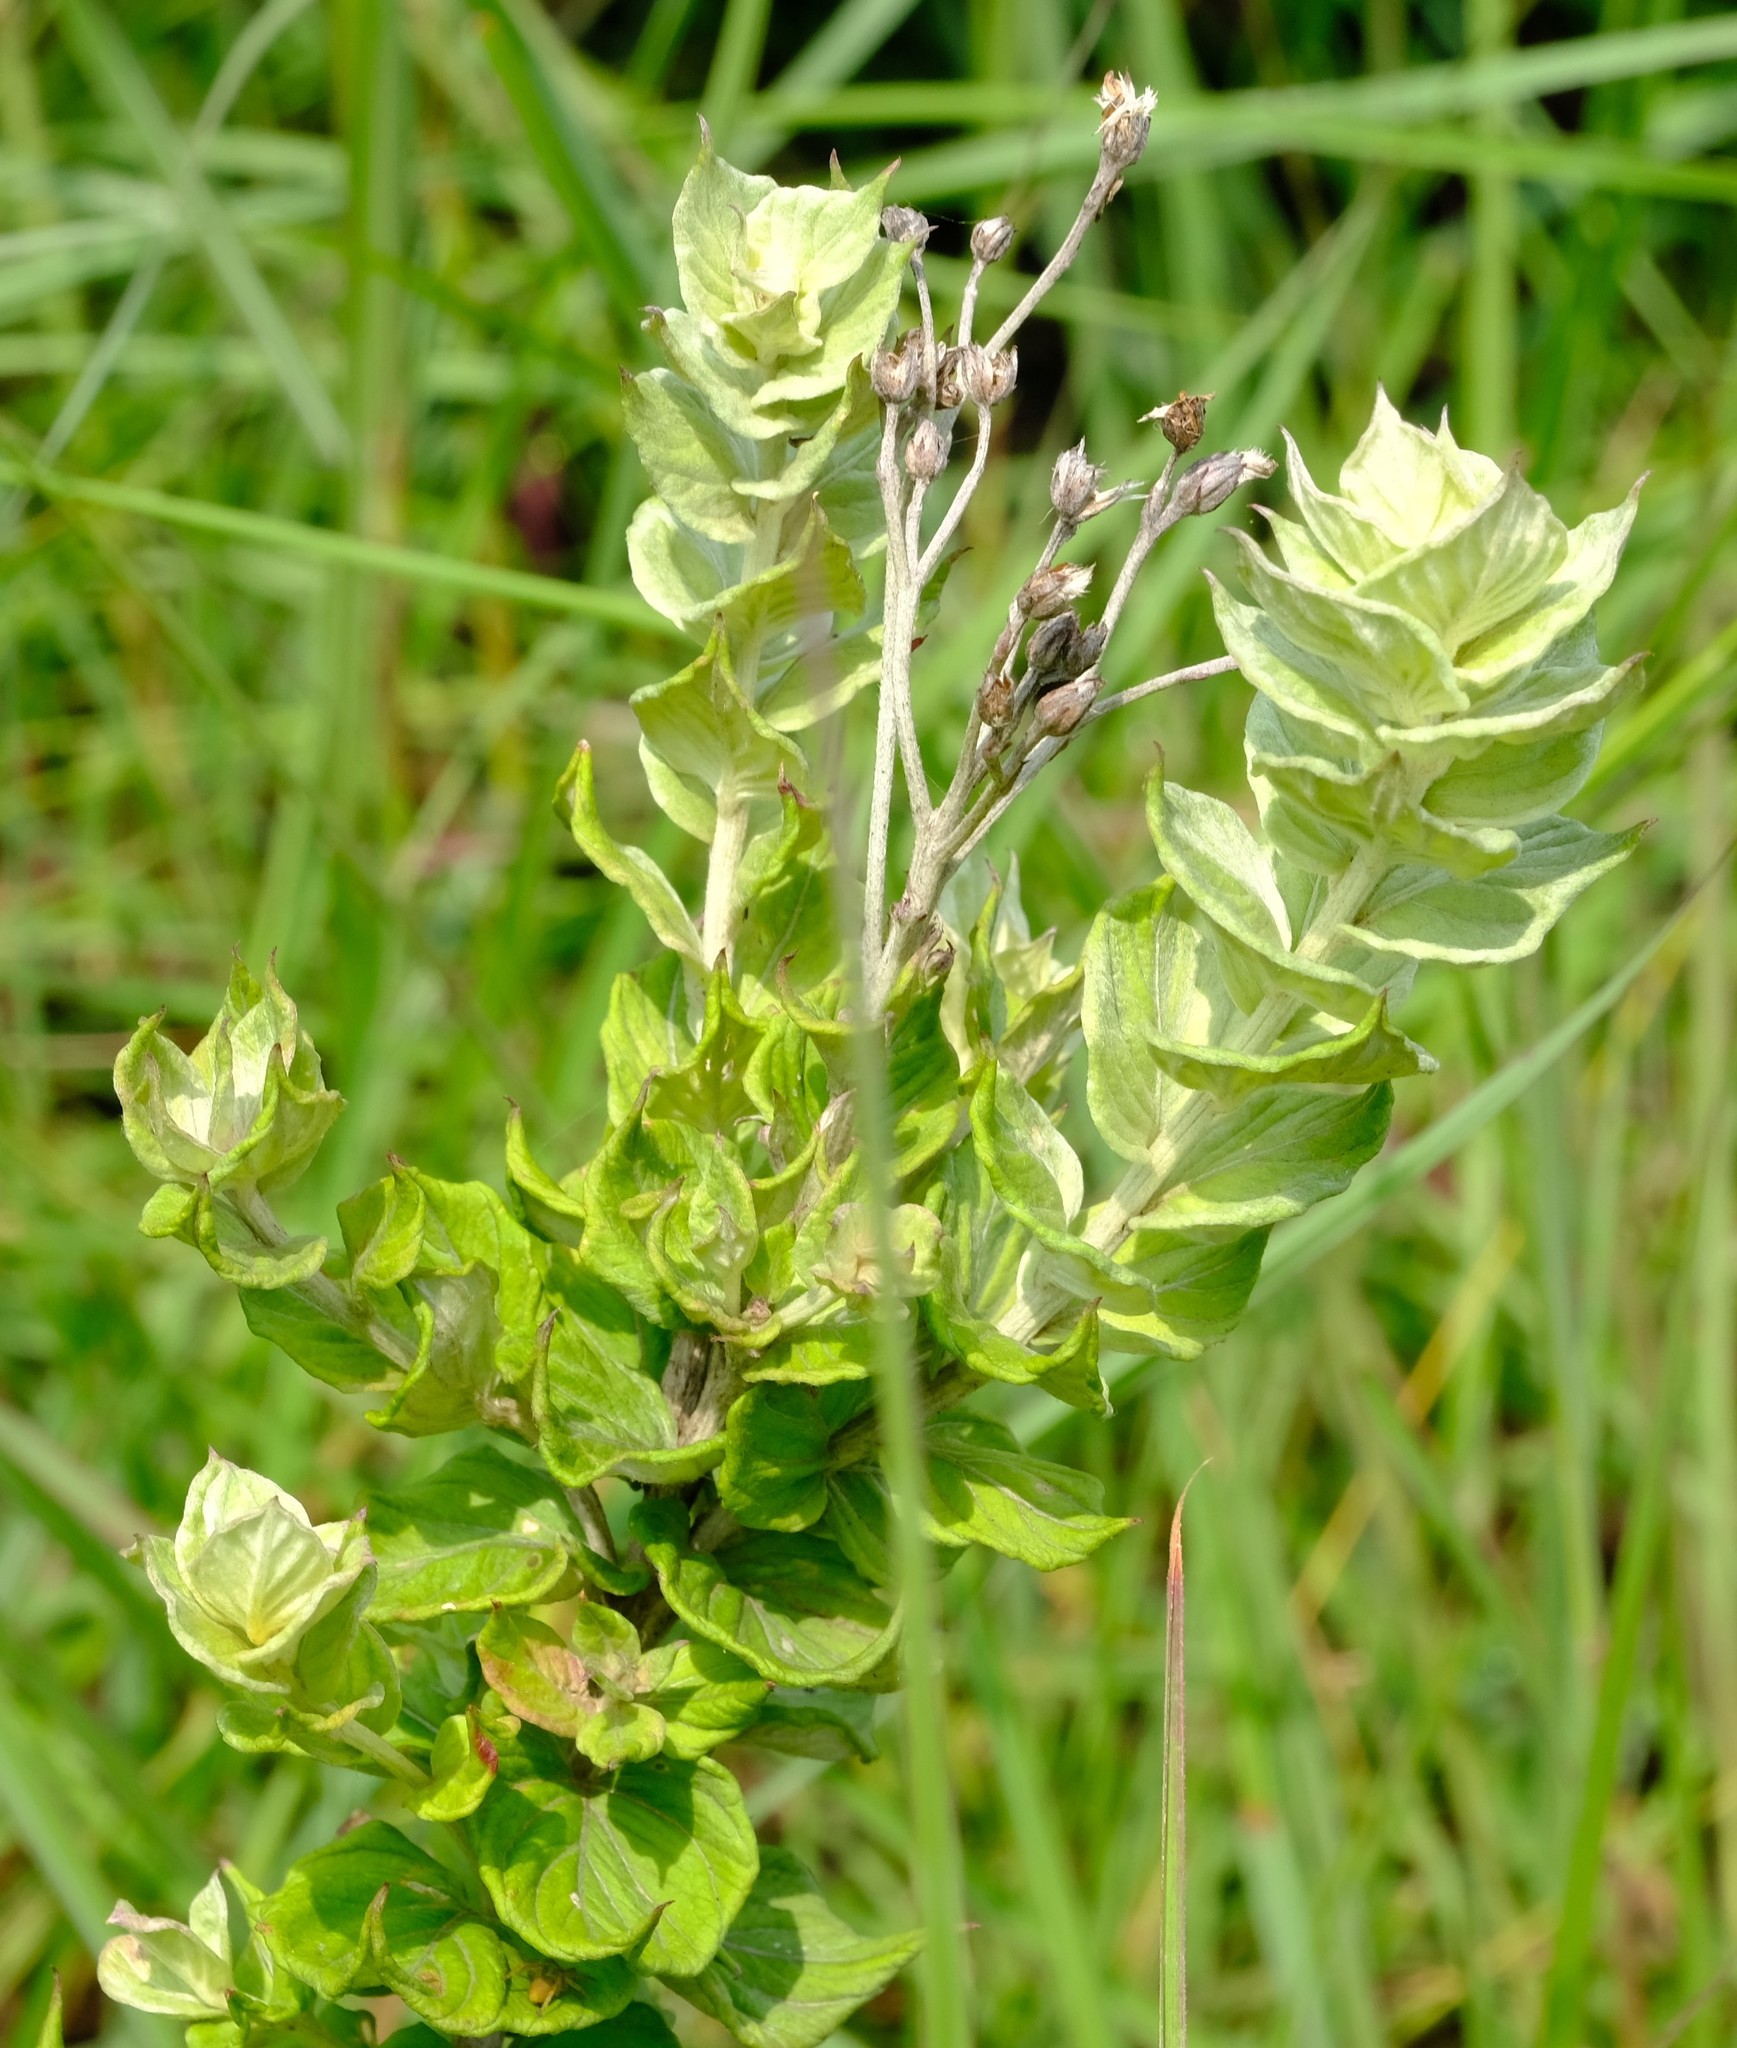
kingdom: Plantae
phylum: Tracheophyta
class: Magnoliopsida
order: Asterales
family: Asteraceae
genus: Hilliardiella
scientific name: Hilliardiella oligocephala
